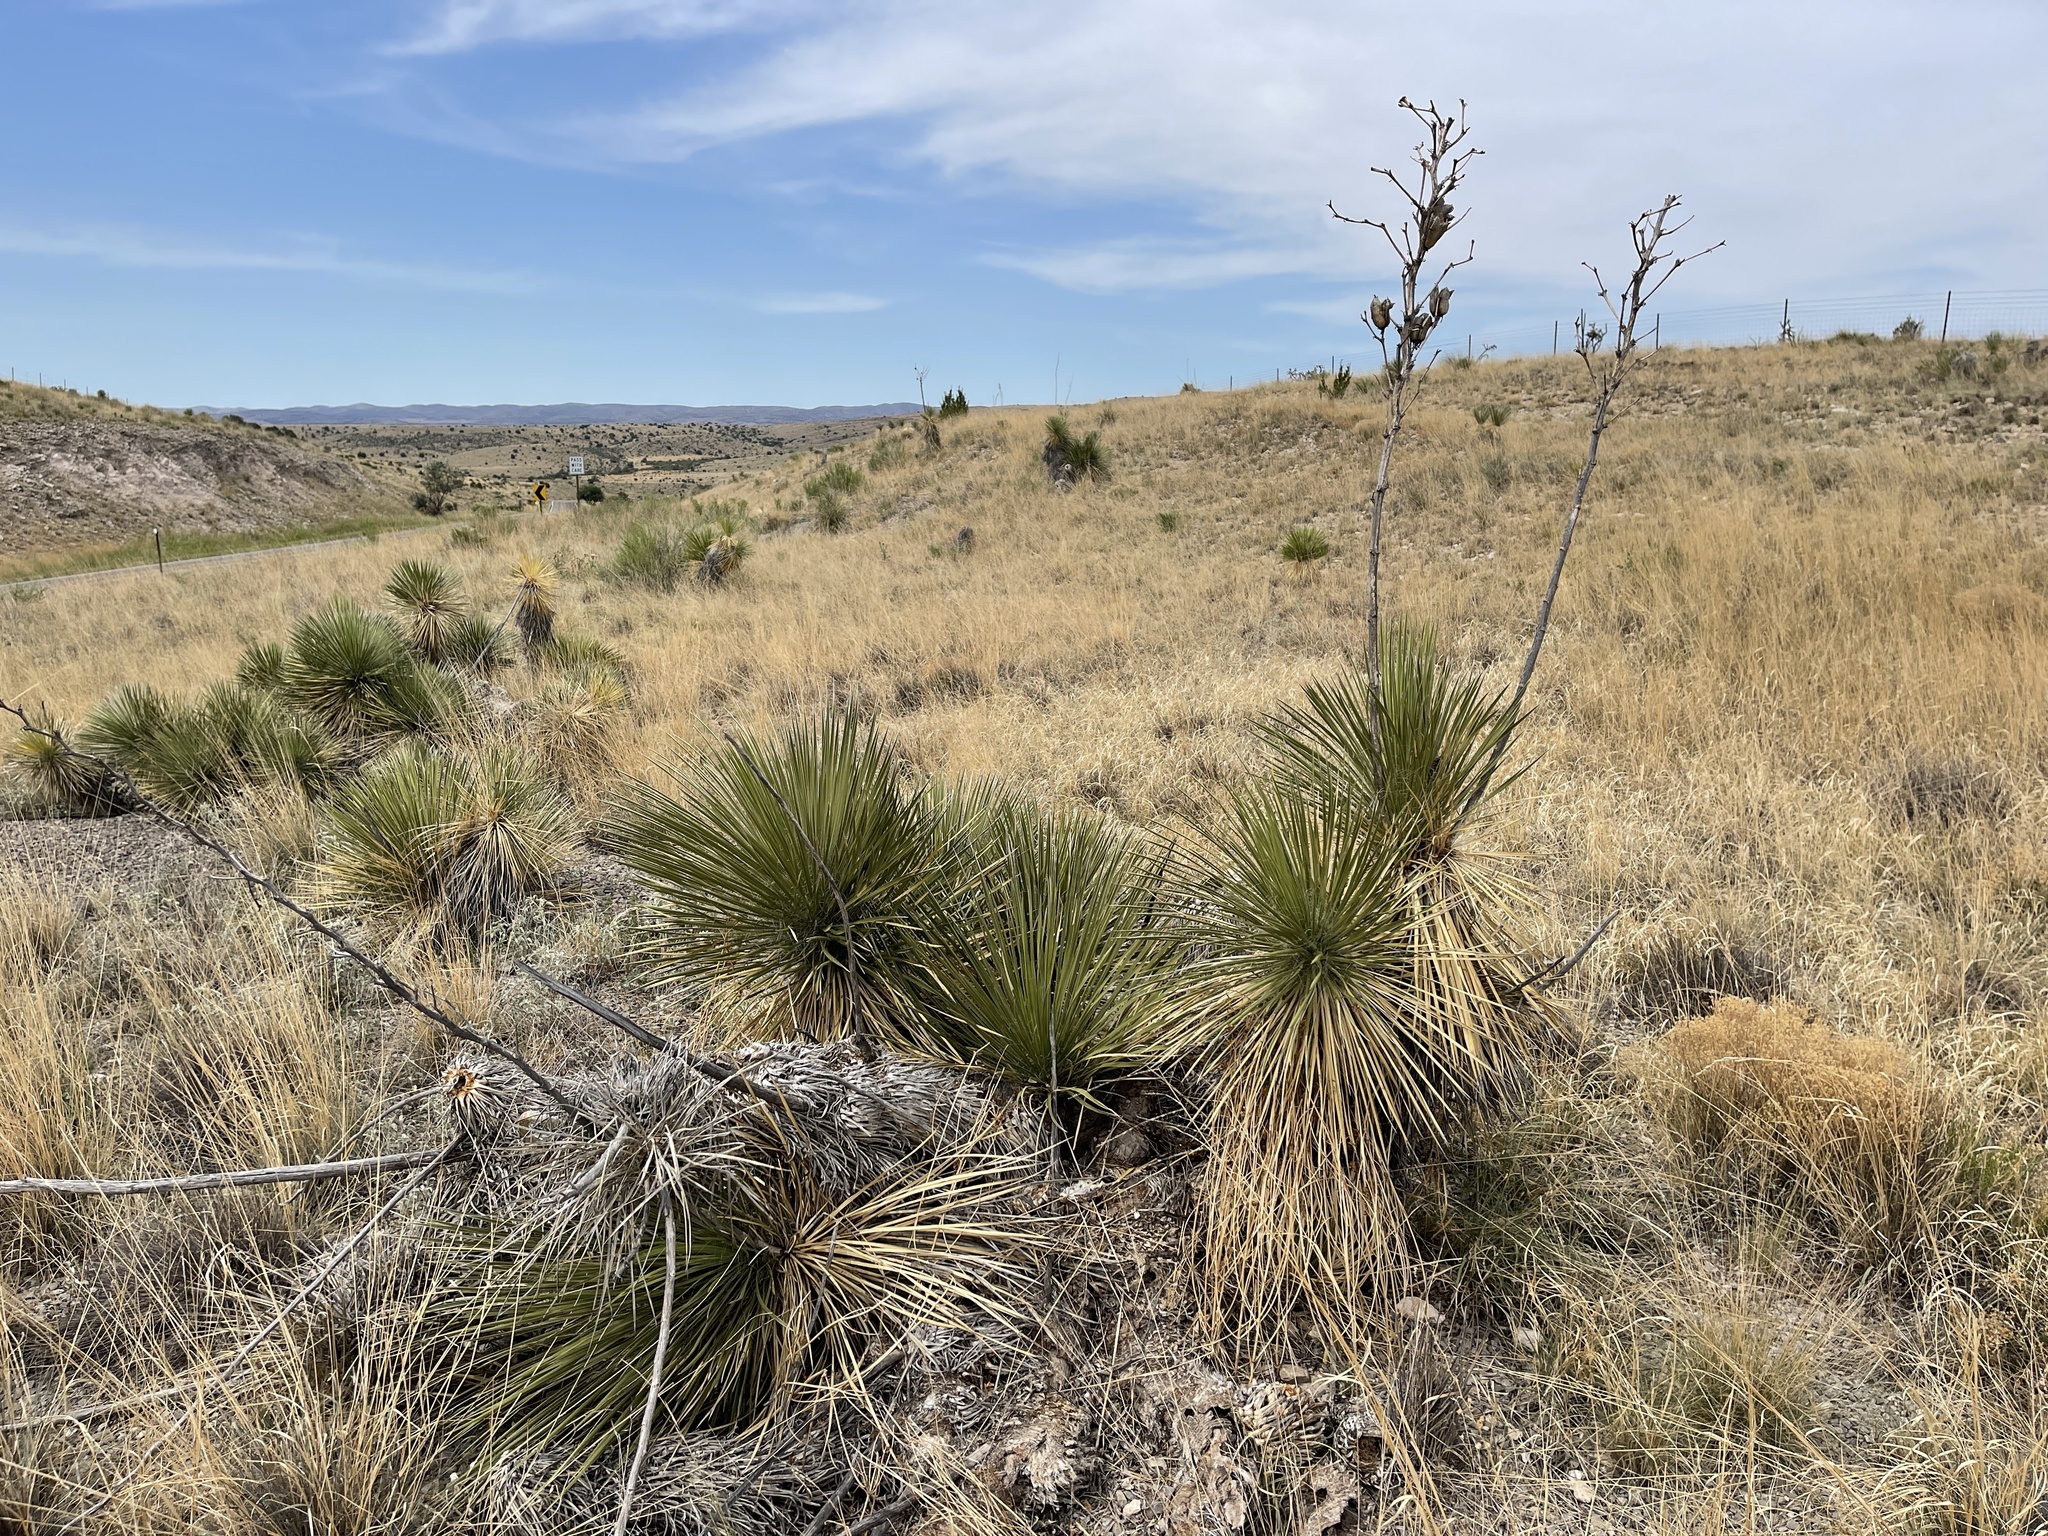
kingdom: Plantae
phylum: Tracheophyta
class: Liliopsida
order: Asparagales
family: Asparagaceae
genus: Yucca
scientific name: Yucca elata
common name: Palmella
